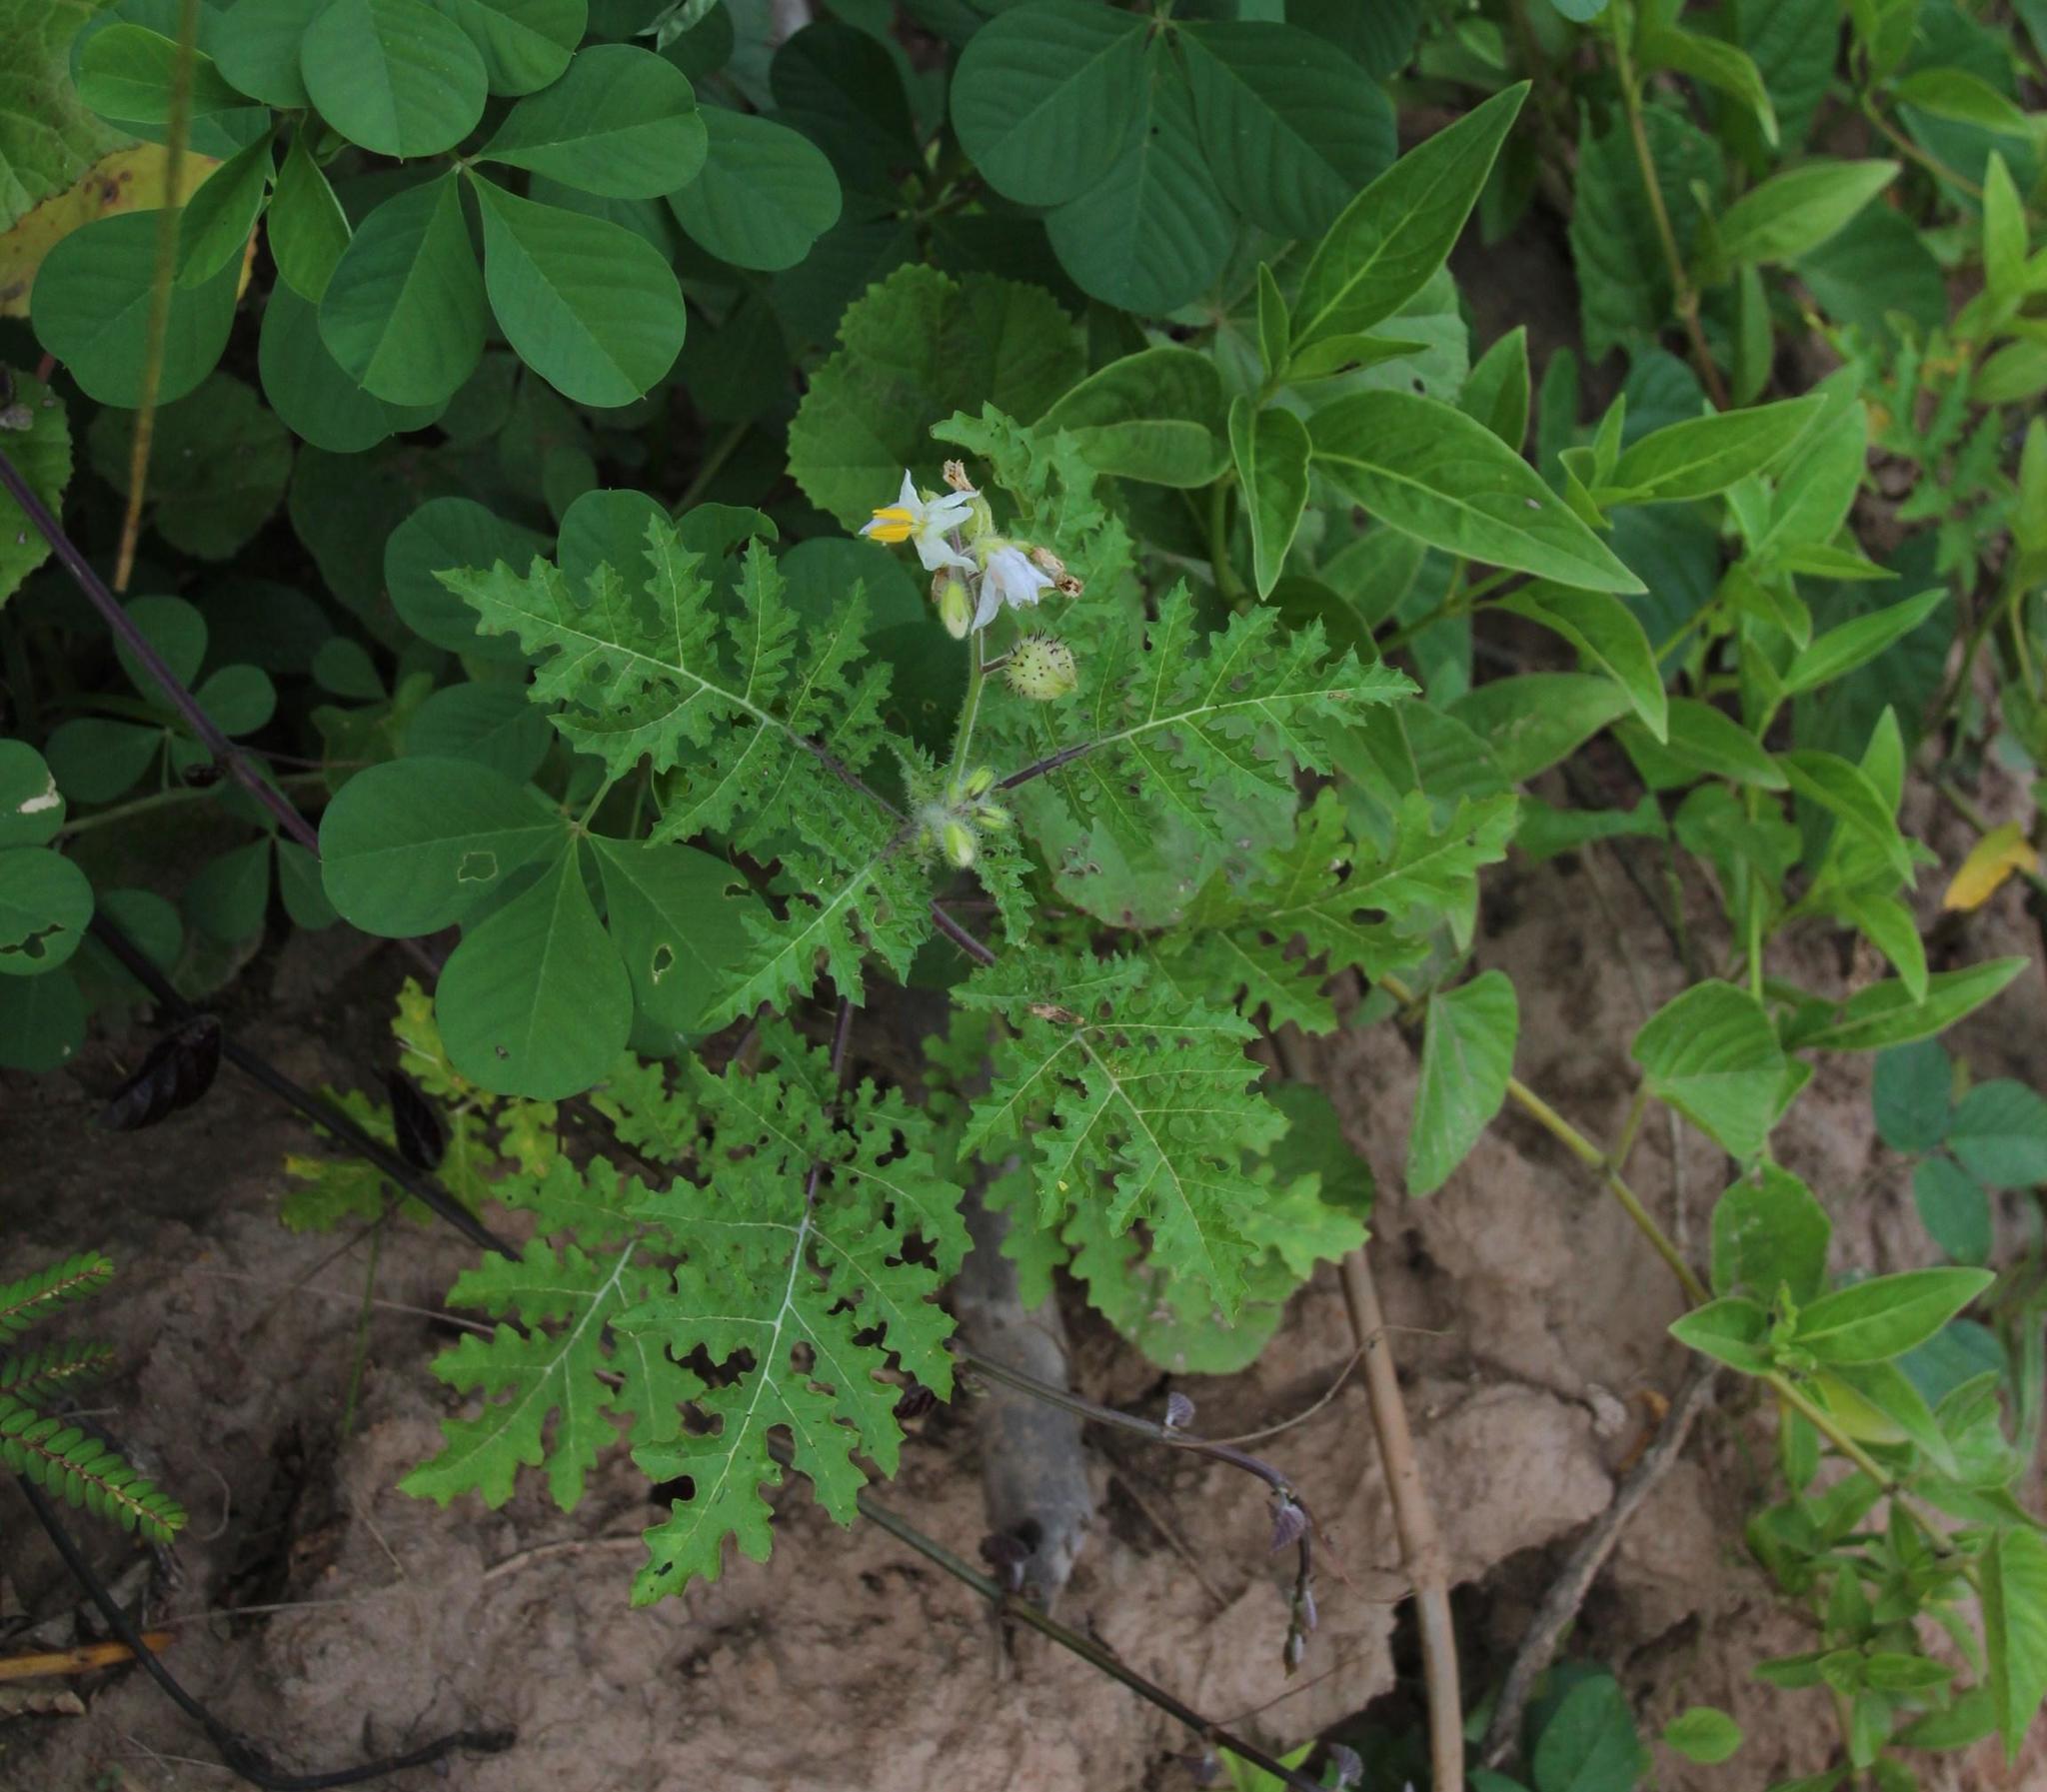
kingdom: Plantae
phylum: Tracheophyta
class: Magnoliopsida
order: Solanales
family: Solanaceae
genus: Solanum
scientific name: Solanum sisymbriifolium
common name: Red buffalo-bur
